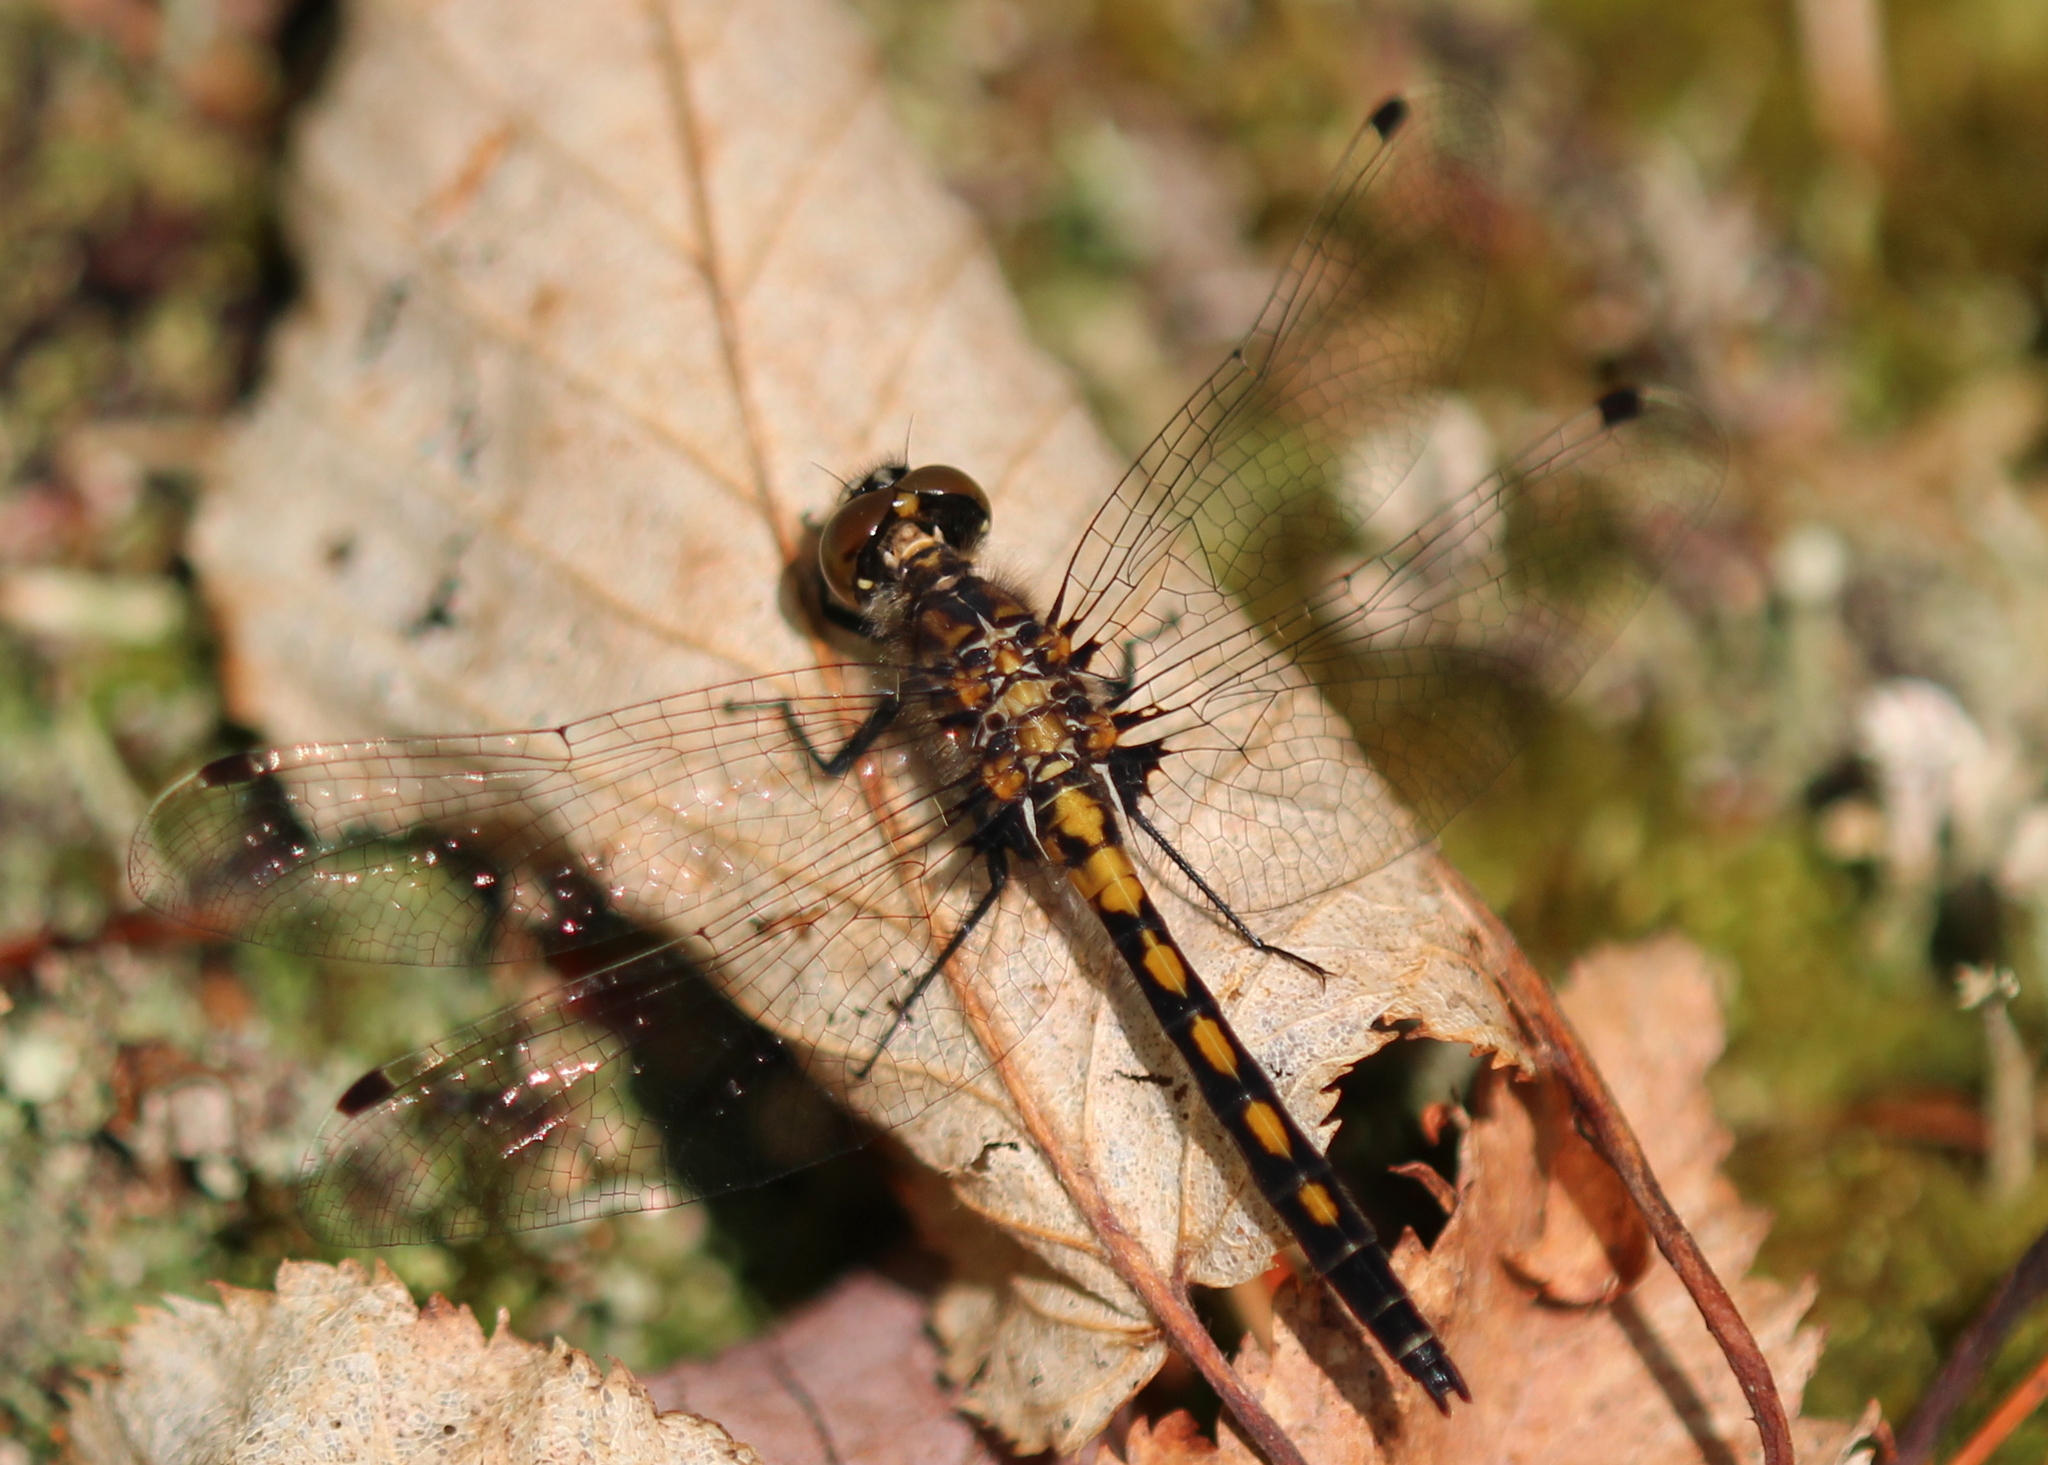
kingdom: Animalia
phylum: Arthropoda
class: Insecta
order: Odonata
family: Libellulidae
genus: Leucorrhinia
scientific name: Leucorrhinia hudsonica
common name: Hudsonian whiteface
